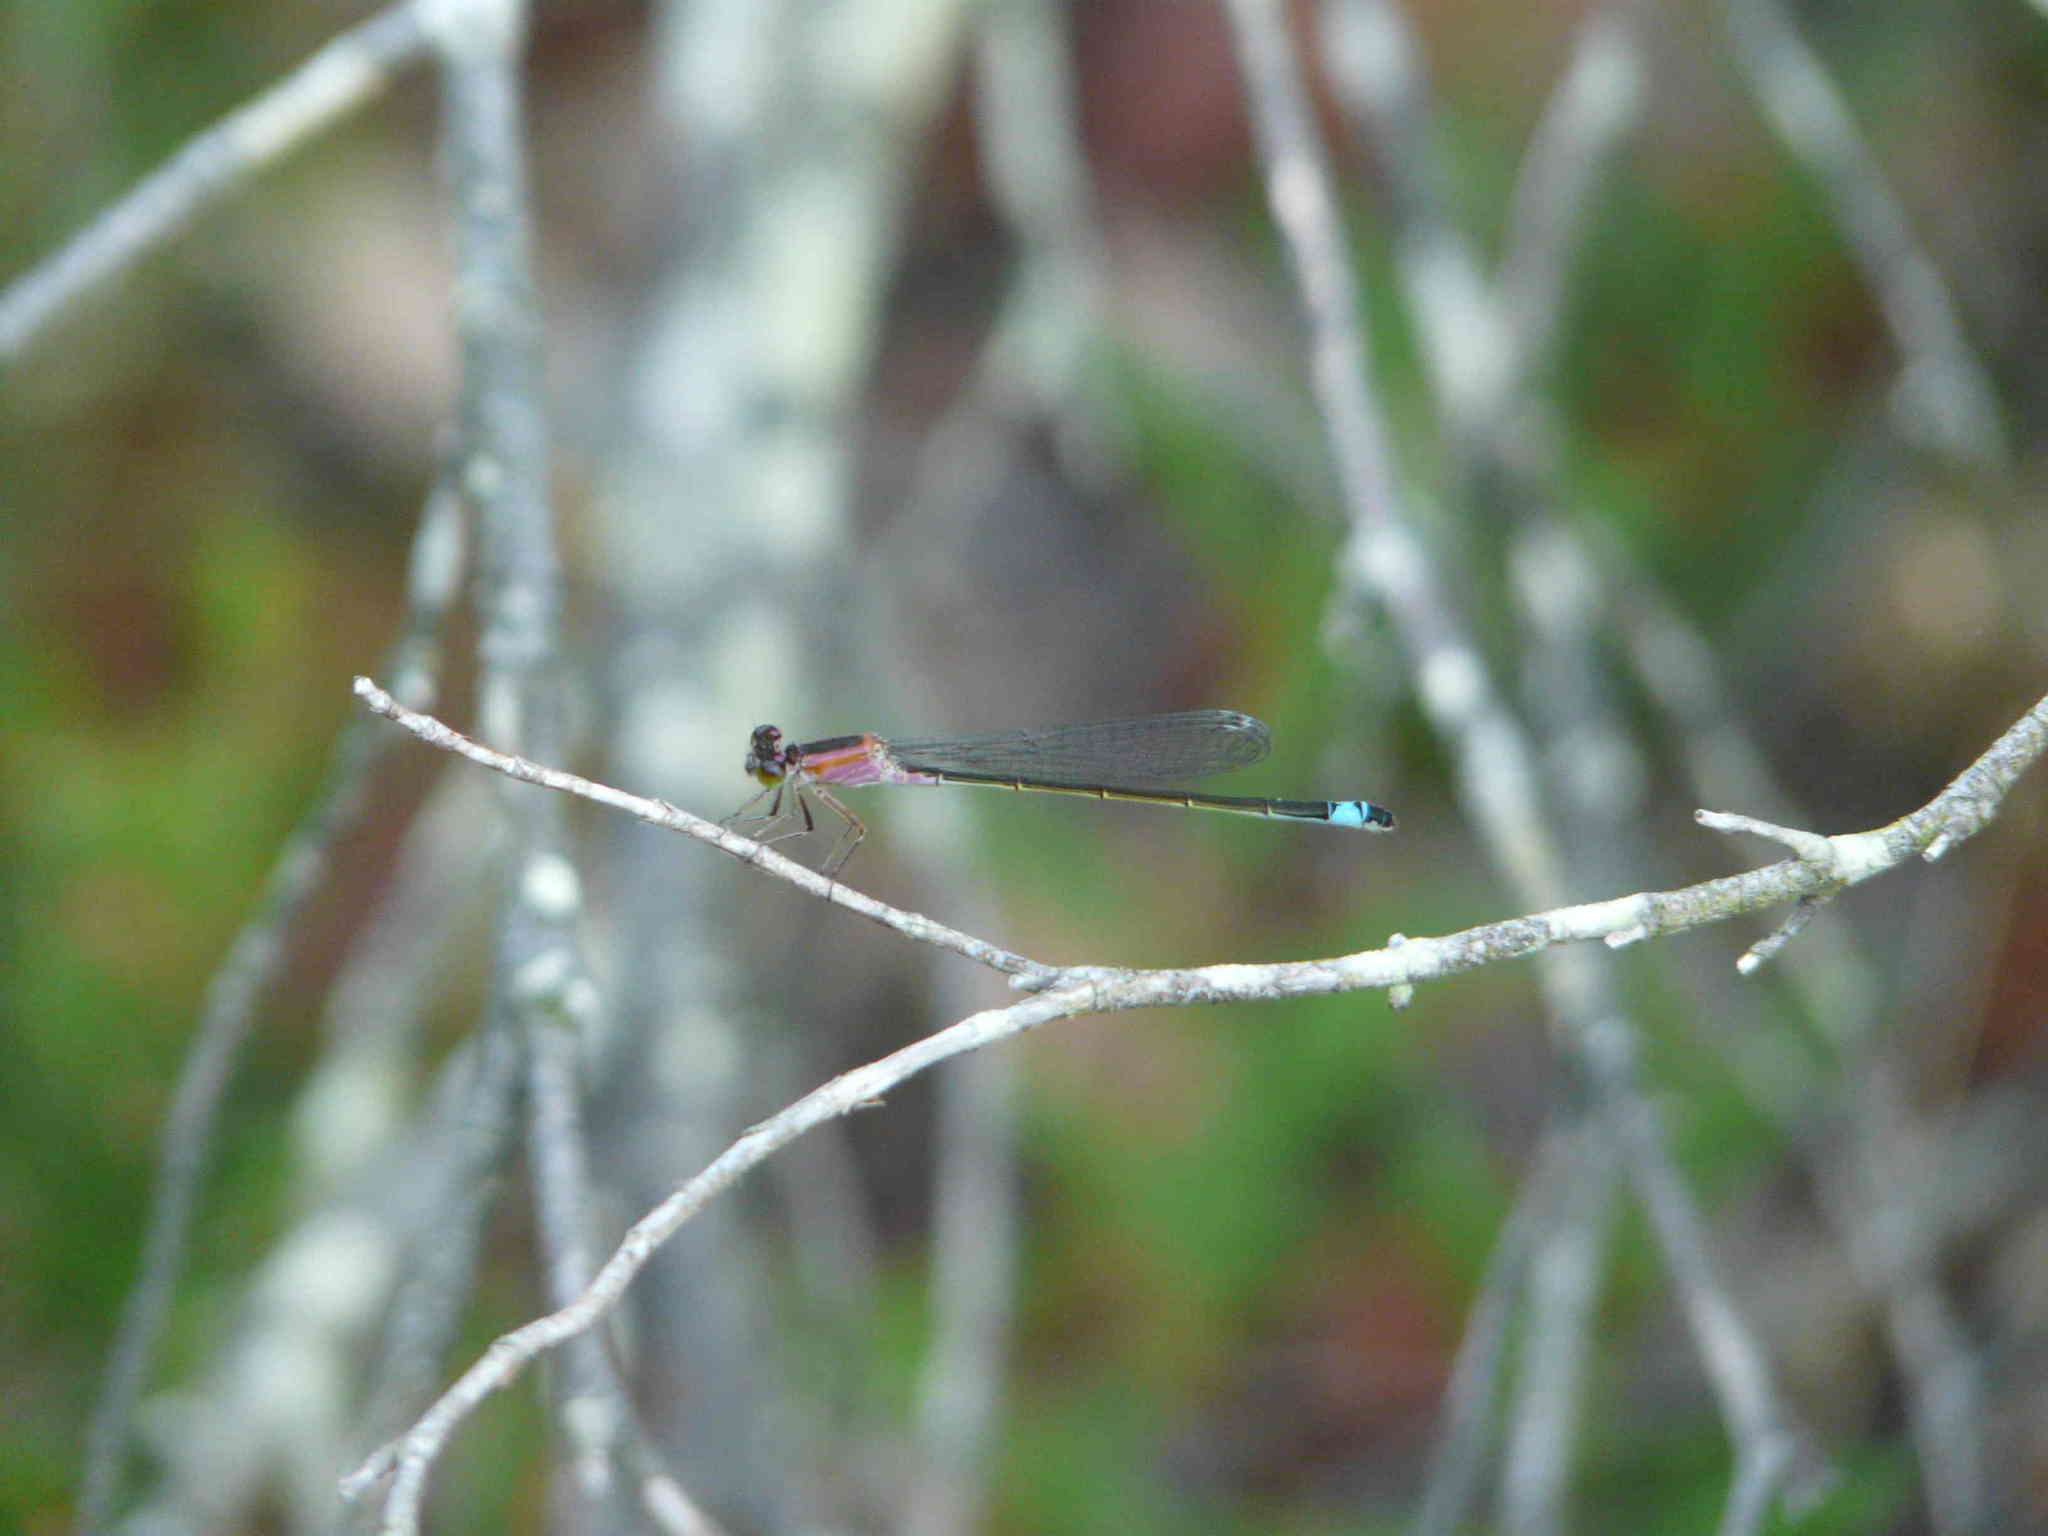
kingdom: Animalia
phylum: Arthropoda
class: Insecta
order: Odonata
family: Coenagrionidae
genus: Ischnura
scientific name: Ischnura genei
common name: Island bluetail
